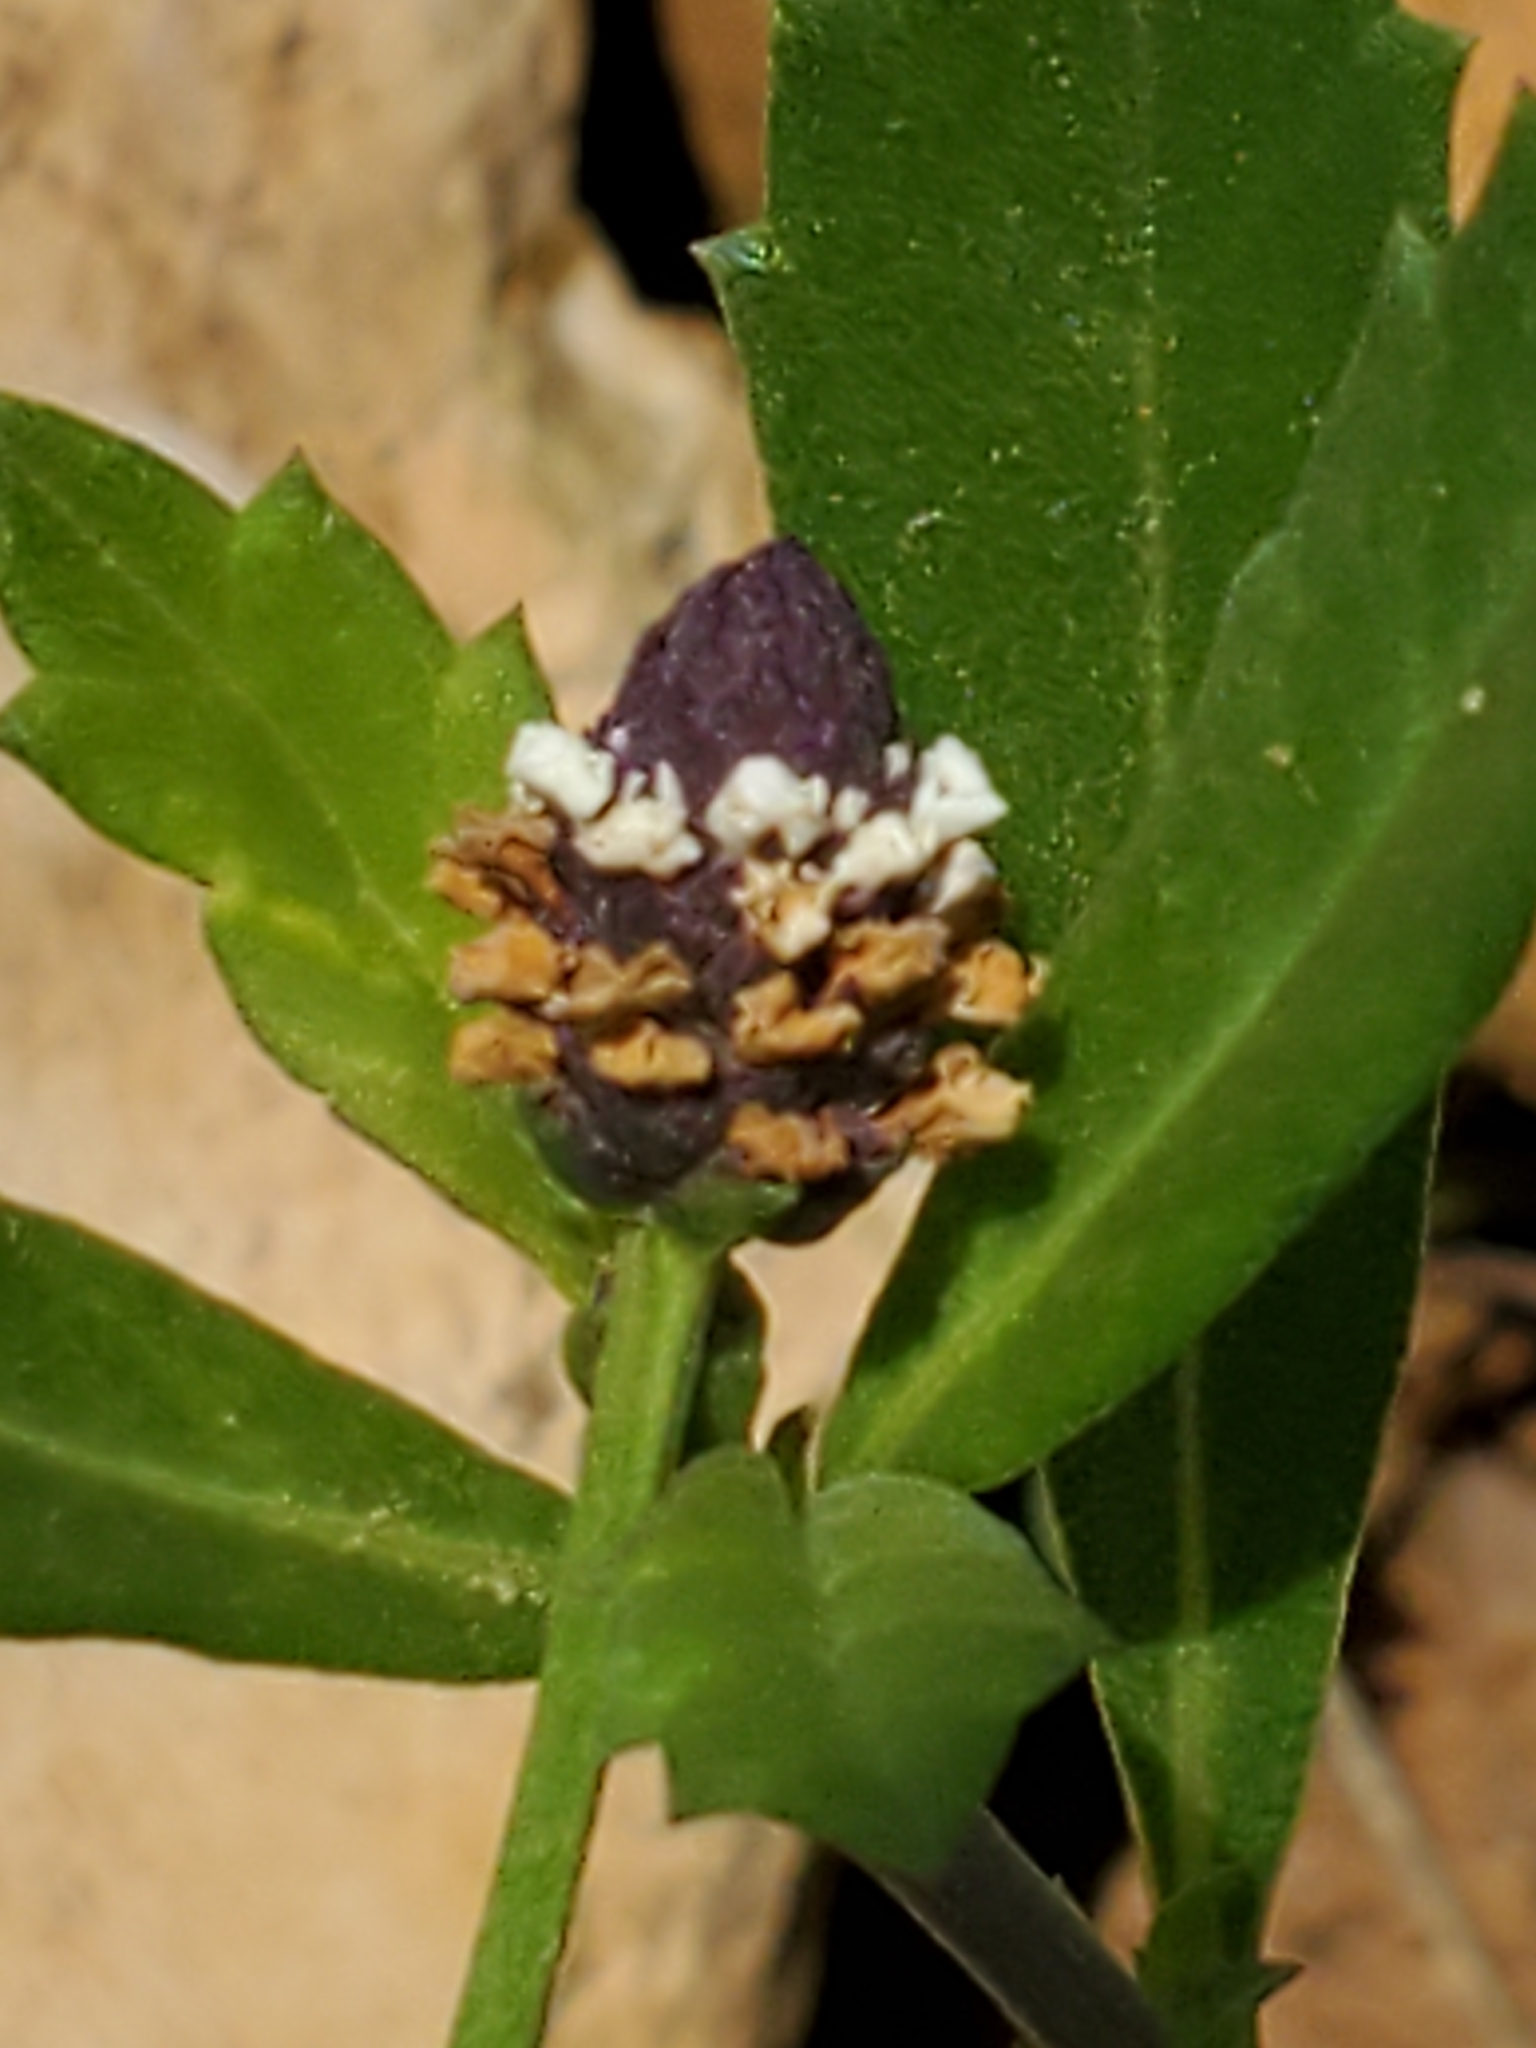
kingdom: Plantae
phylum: Tracheophyta
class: Magnoliopsida
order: Lamiales
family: Verbenaceae
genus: Phyla
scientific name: Phyla nodiflora
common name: Frogfruit
